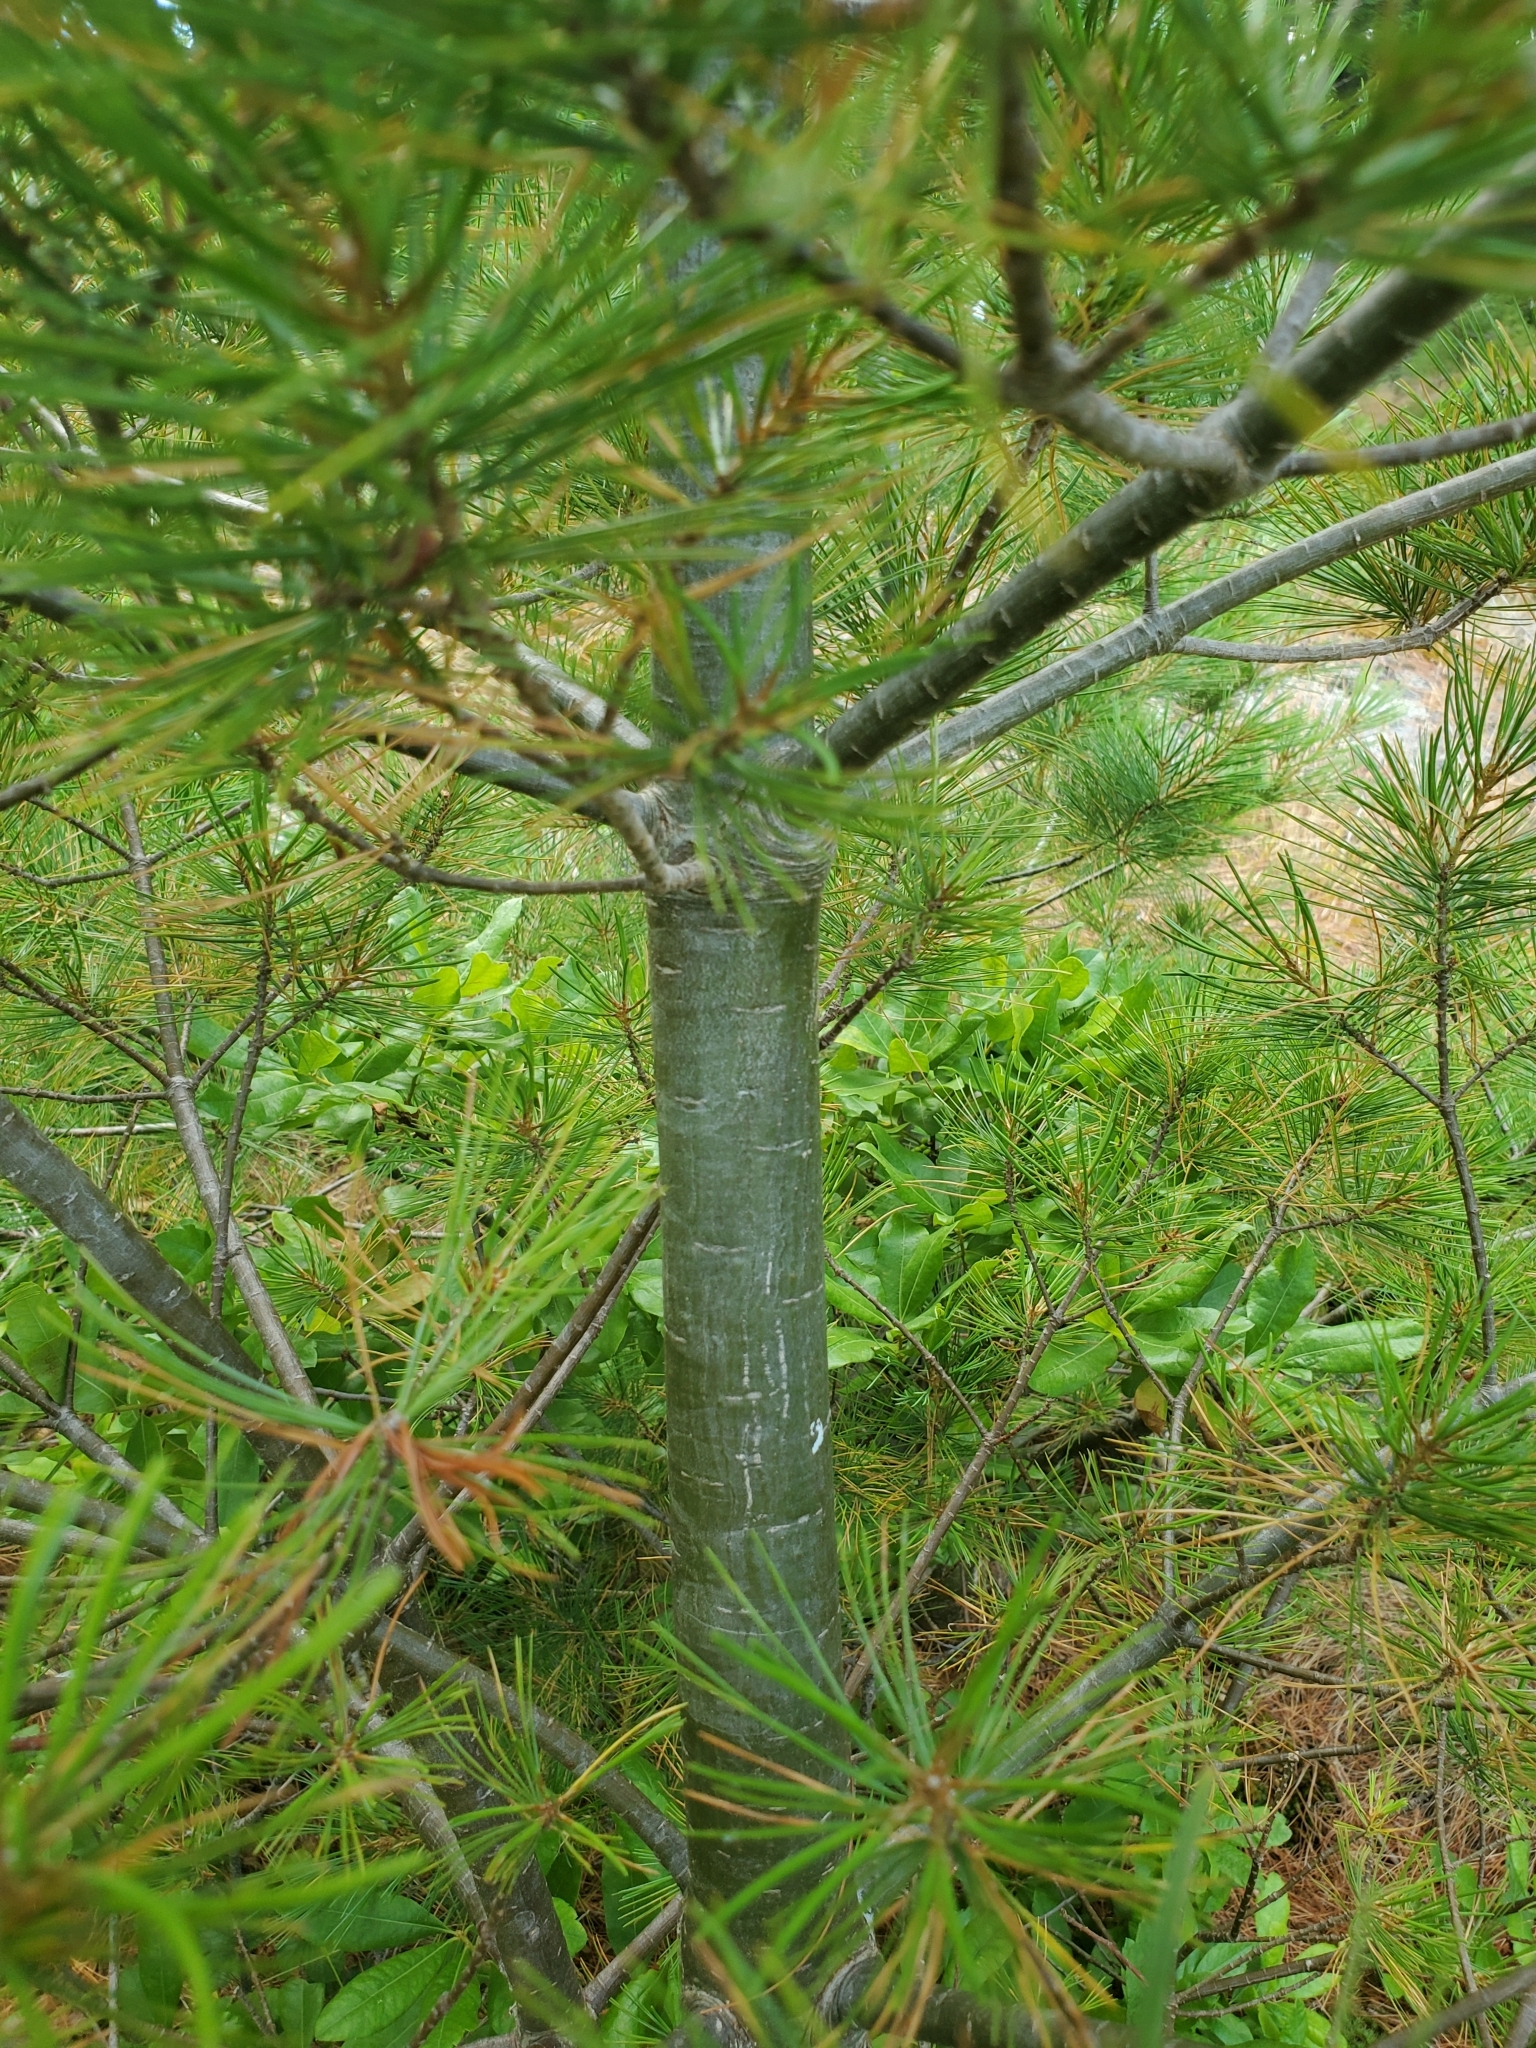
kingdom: Plantae
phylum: Tracheophyta
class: Pinopsida
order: Pinales
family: Pinaceae
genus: Pinus
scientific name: Pinus strobus
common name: Weymouth pine
